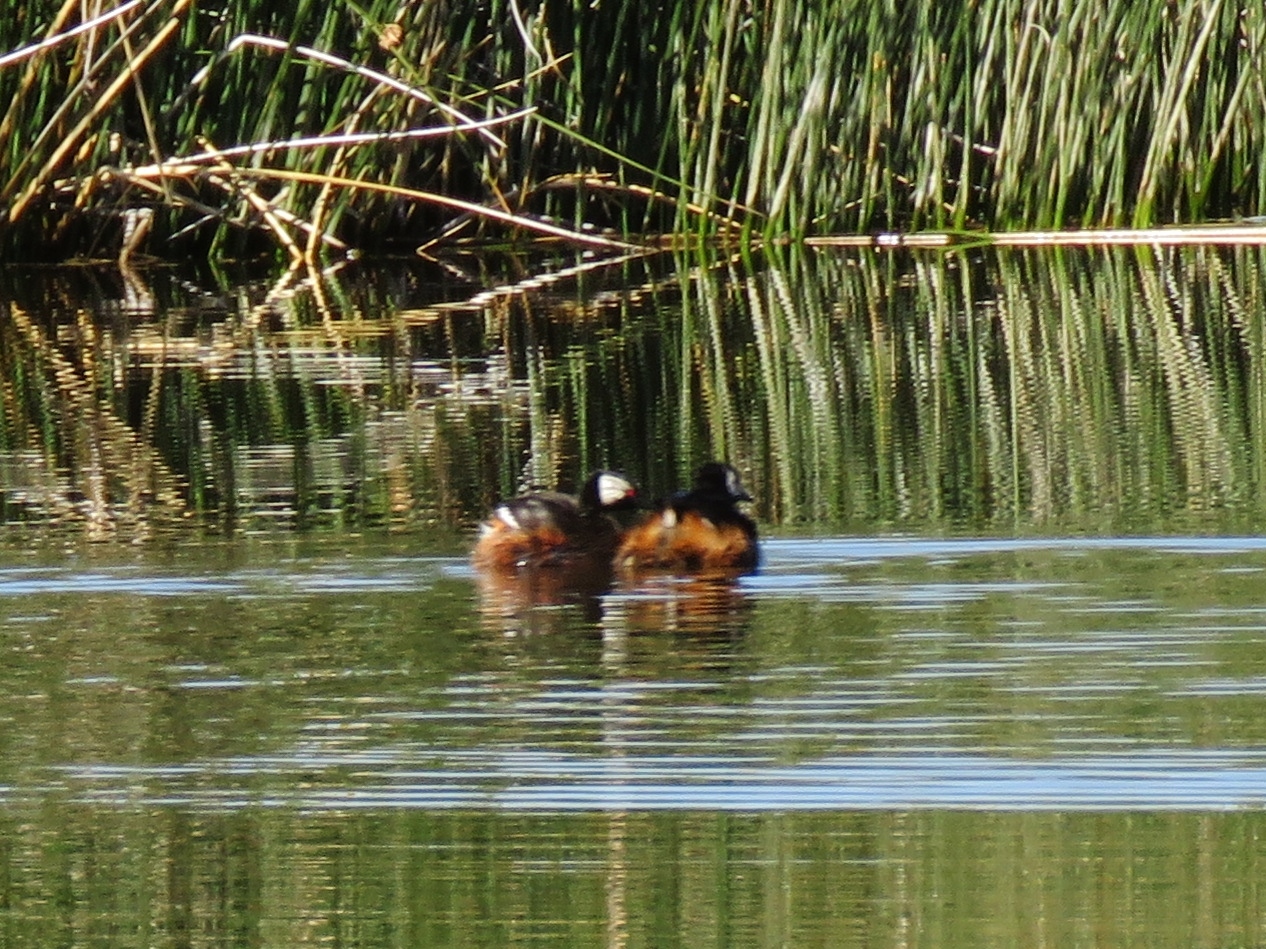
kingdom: Animalia
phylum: Chordata
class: Aves
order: Podicipediformes
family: Podicipedidae
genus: Rollandia
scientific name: Rollandia rolland
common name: White-tufted grebe
